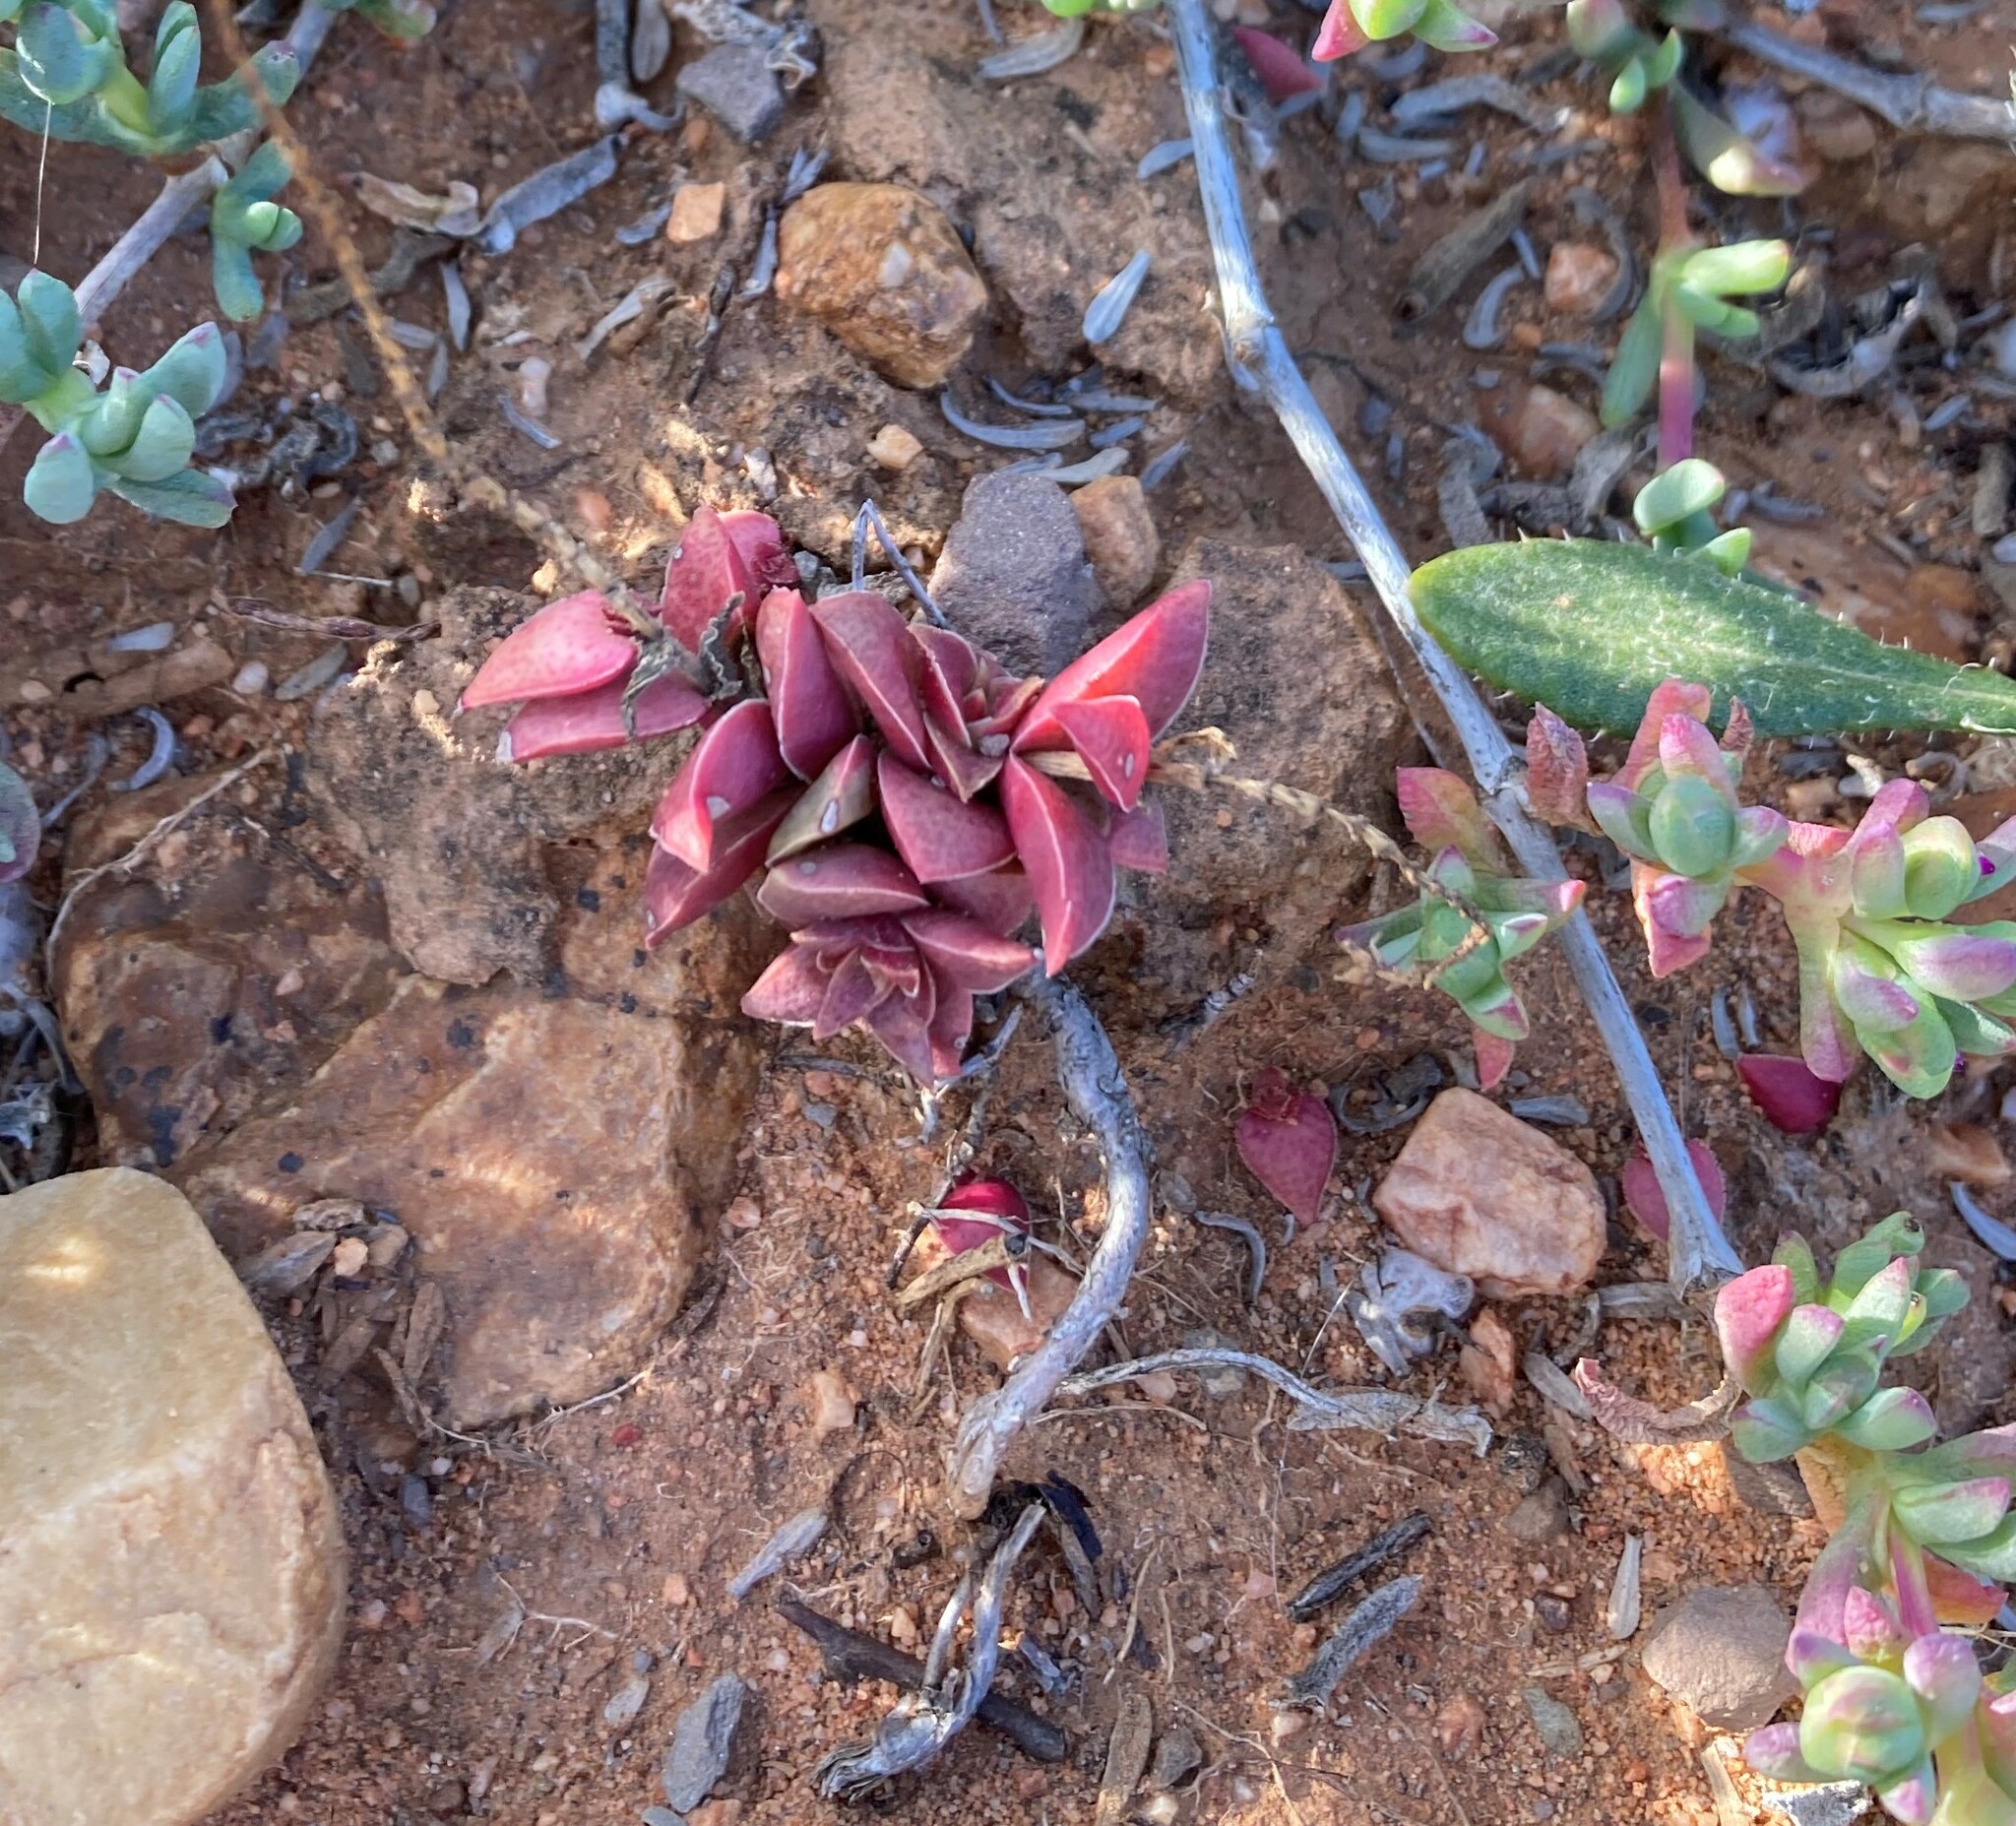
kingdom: Plantae
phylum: Tracheophyta
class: Magnoliopsida
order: Saxifragales
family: Crassulaceae
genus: Crassula
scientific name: Crassula capitella
